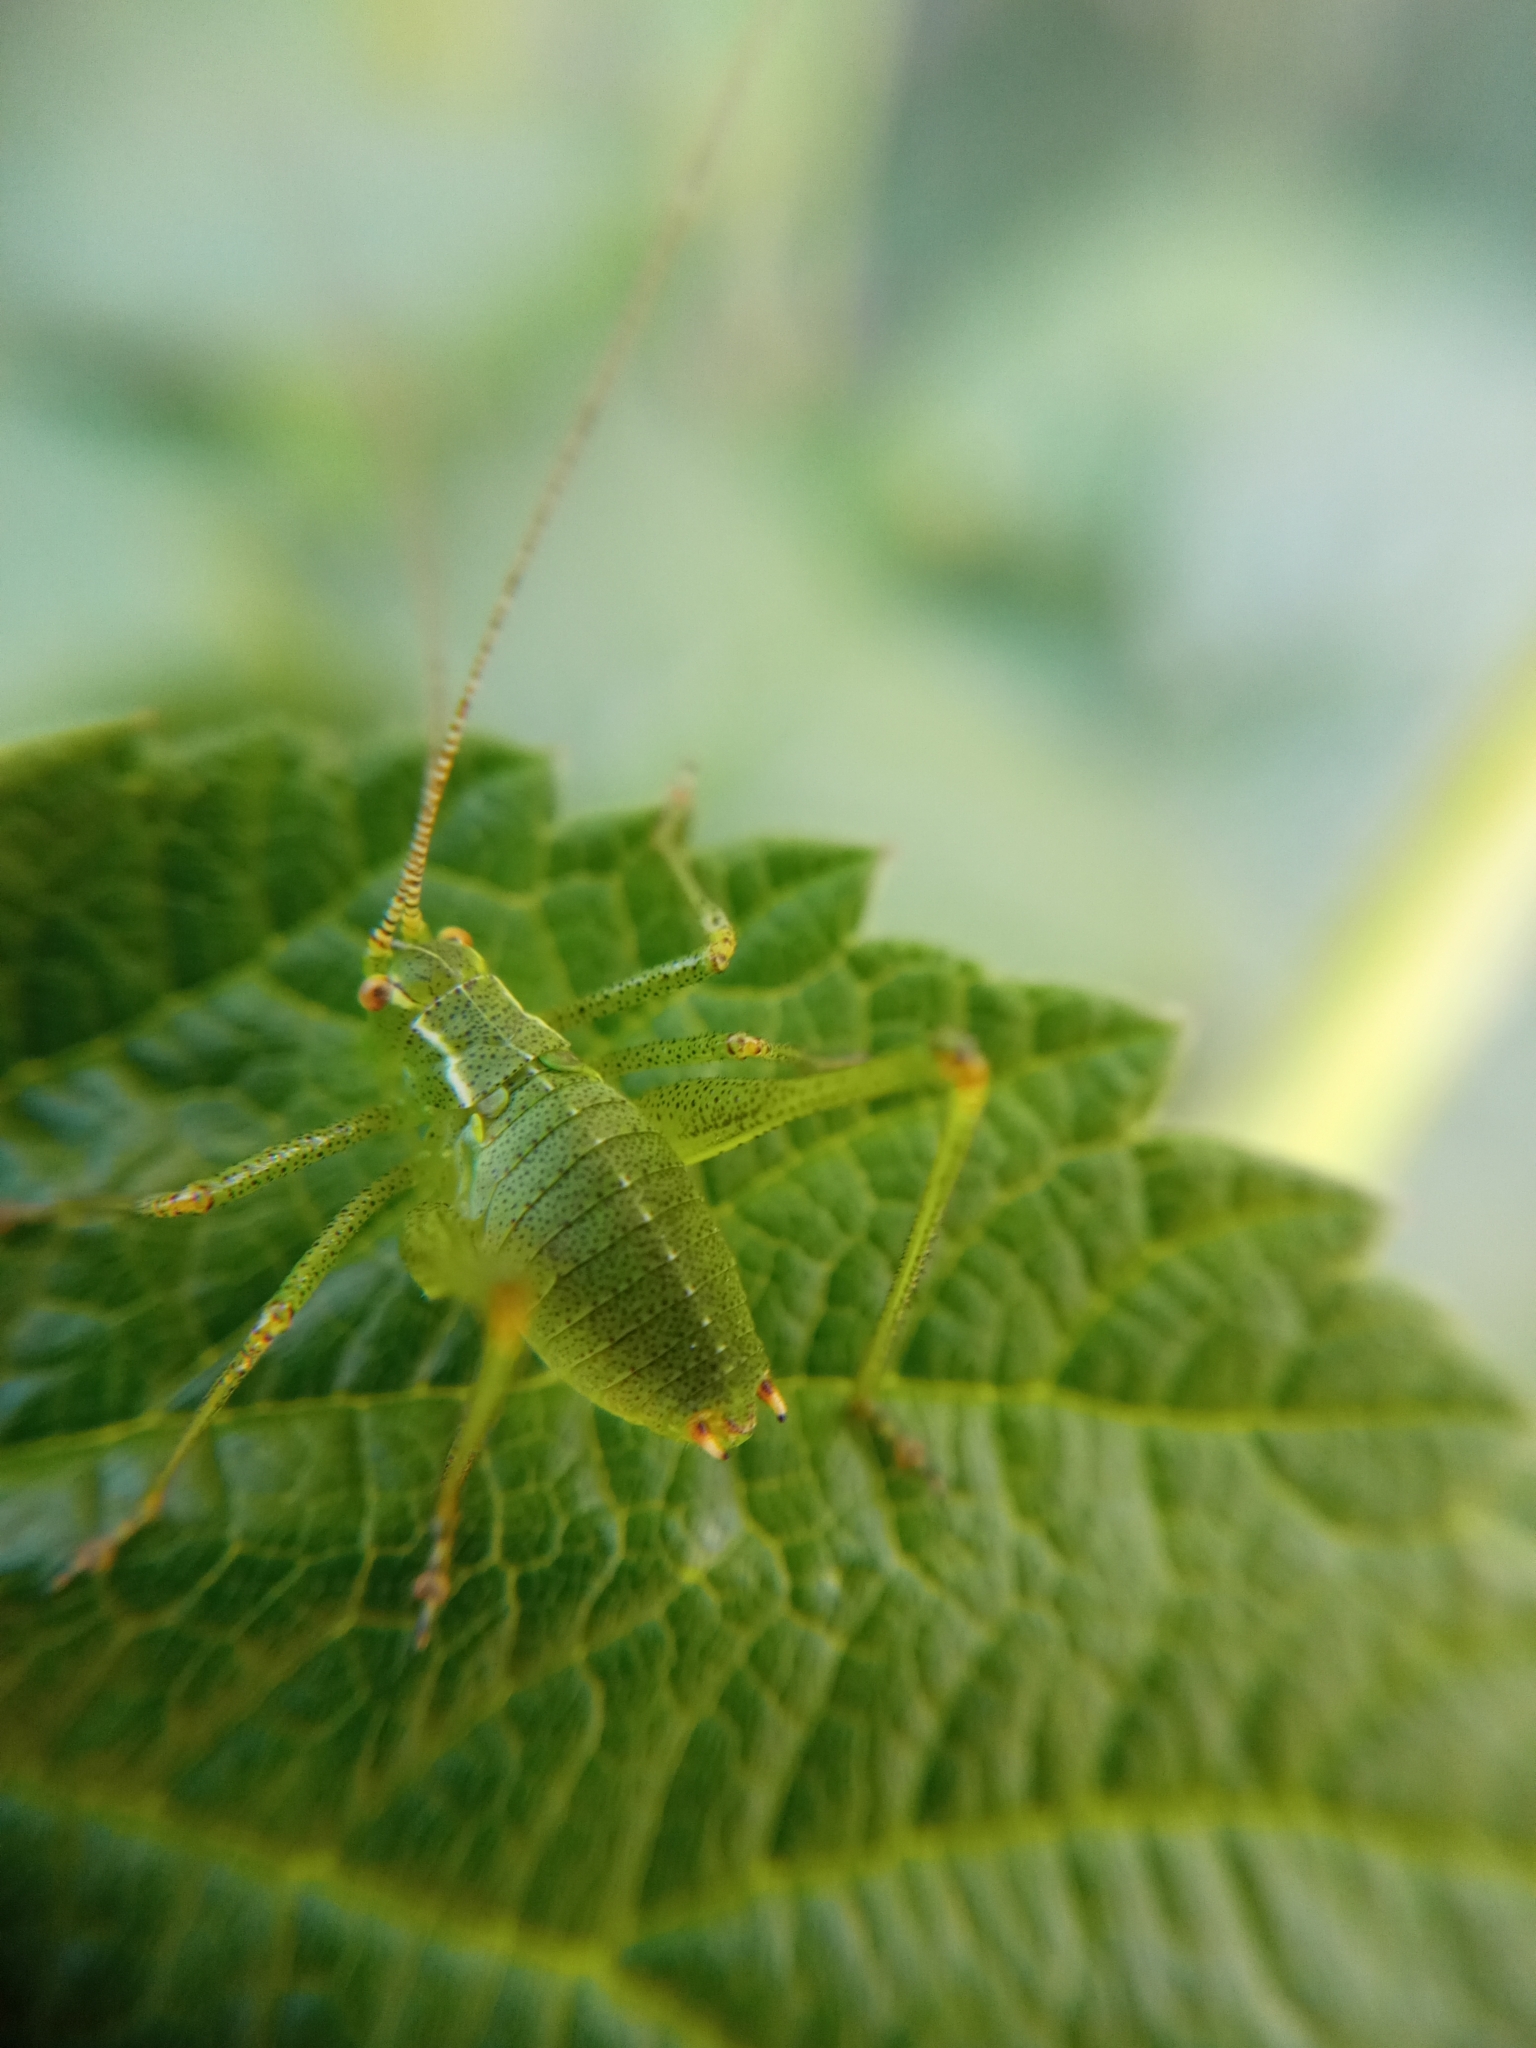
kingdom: Animalia
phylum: Arthropoda
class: Insecta
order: Orthoptera
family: Tettigoniidae
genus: Leptophyes
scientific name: Leptophyes punctatissima
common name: Speckled bush-cricket
